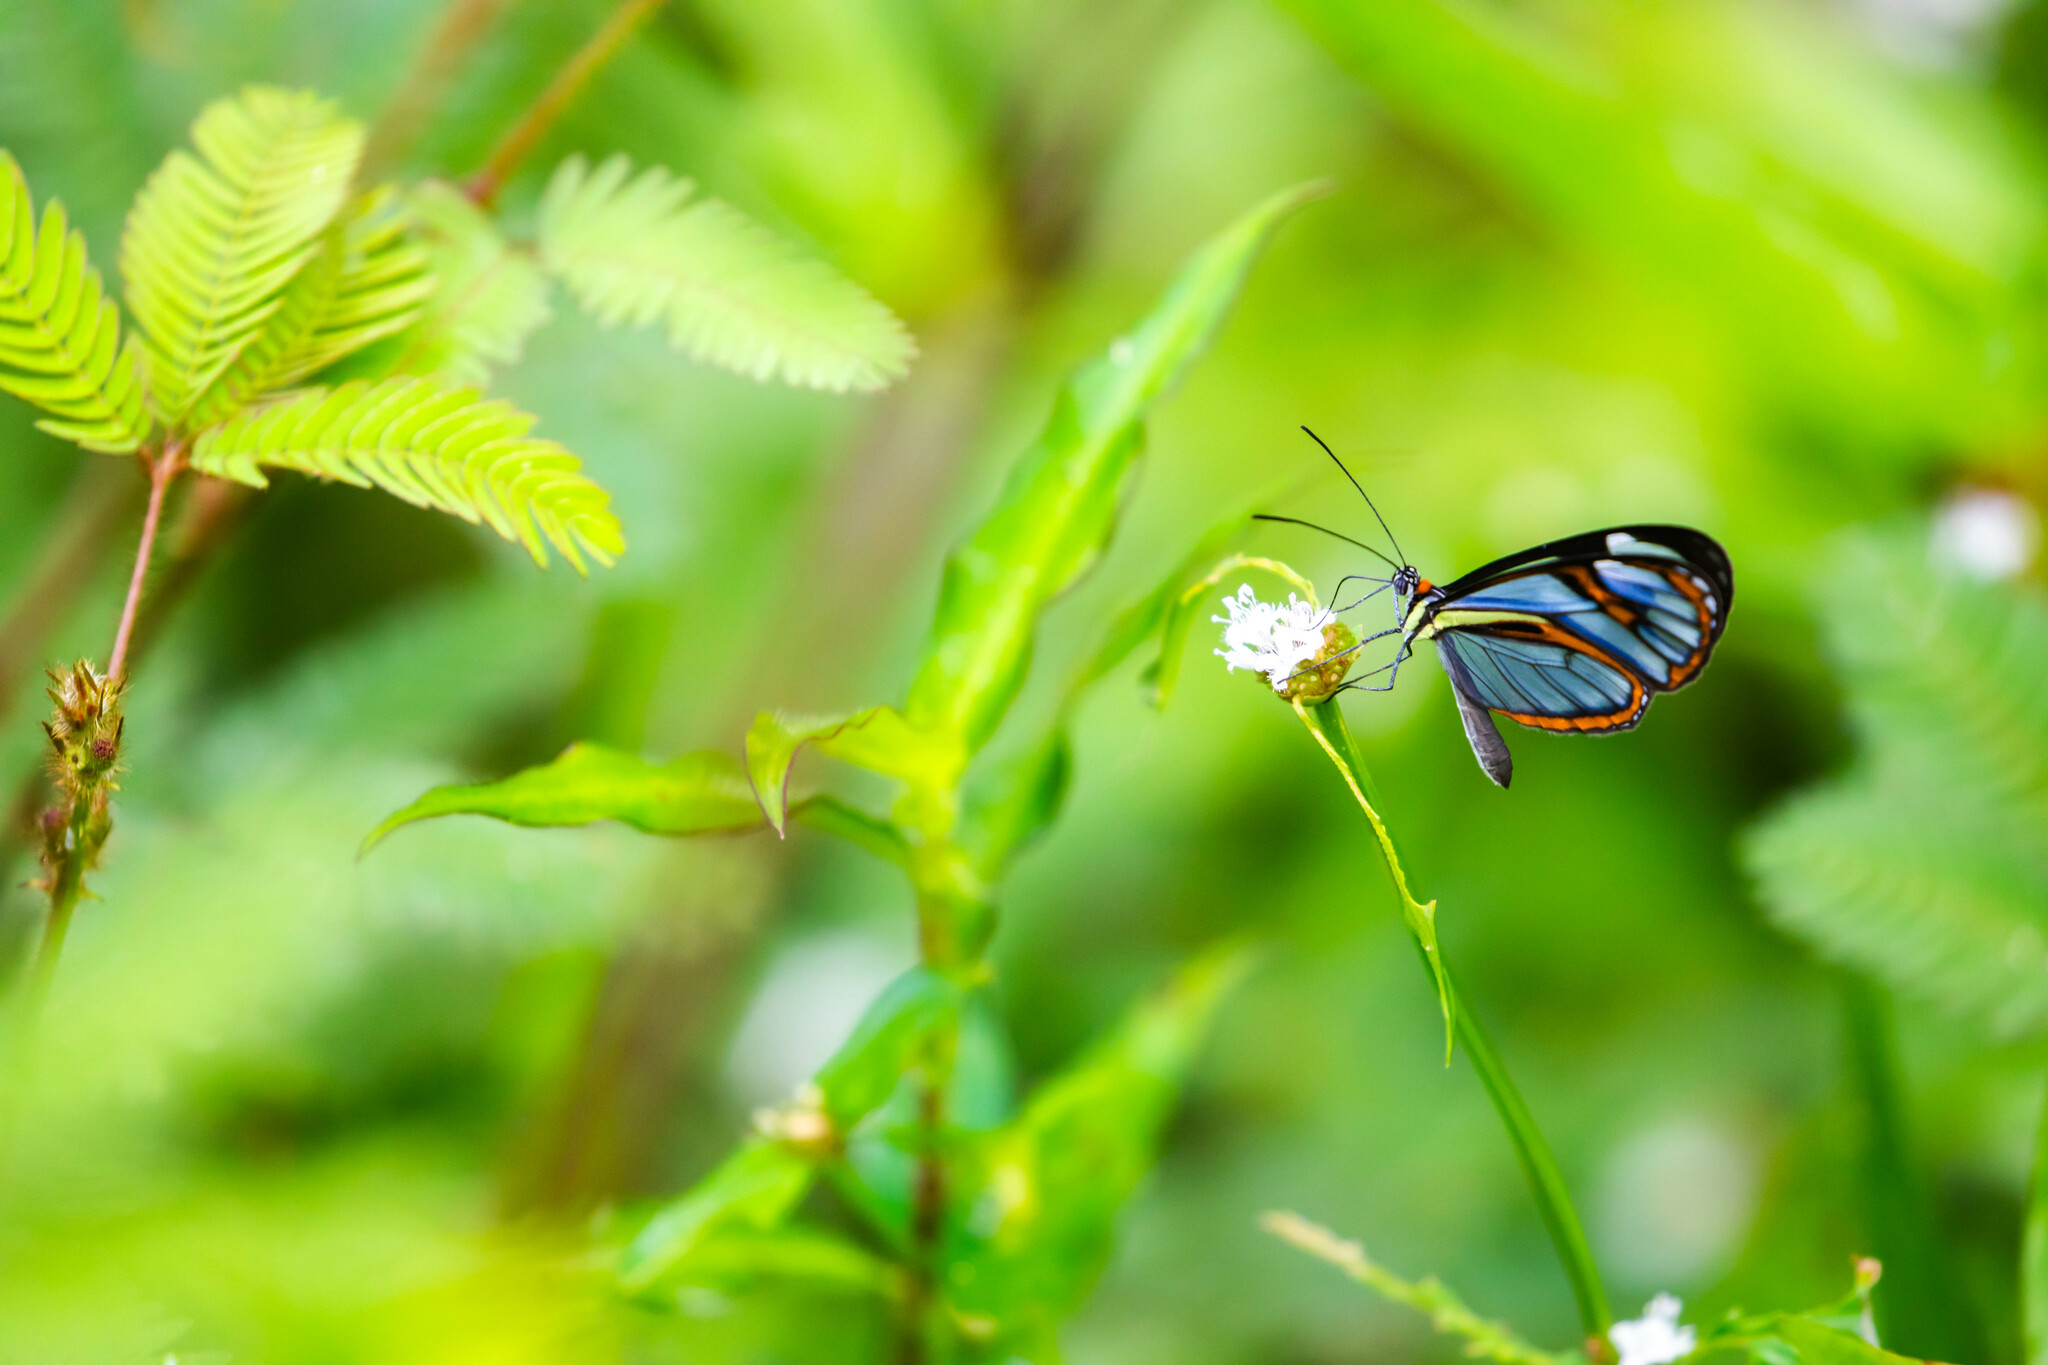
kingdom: Animalia
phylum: Arthropoda
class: Insecta
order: Lepidoptera
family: Nymphalidae
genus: Ithomia
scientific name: Ithomia agnosia
